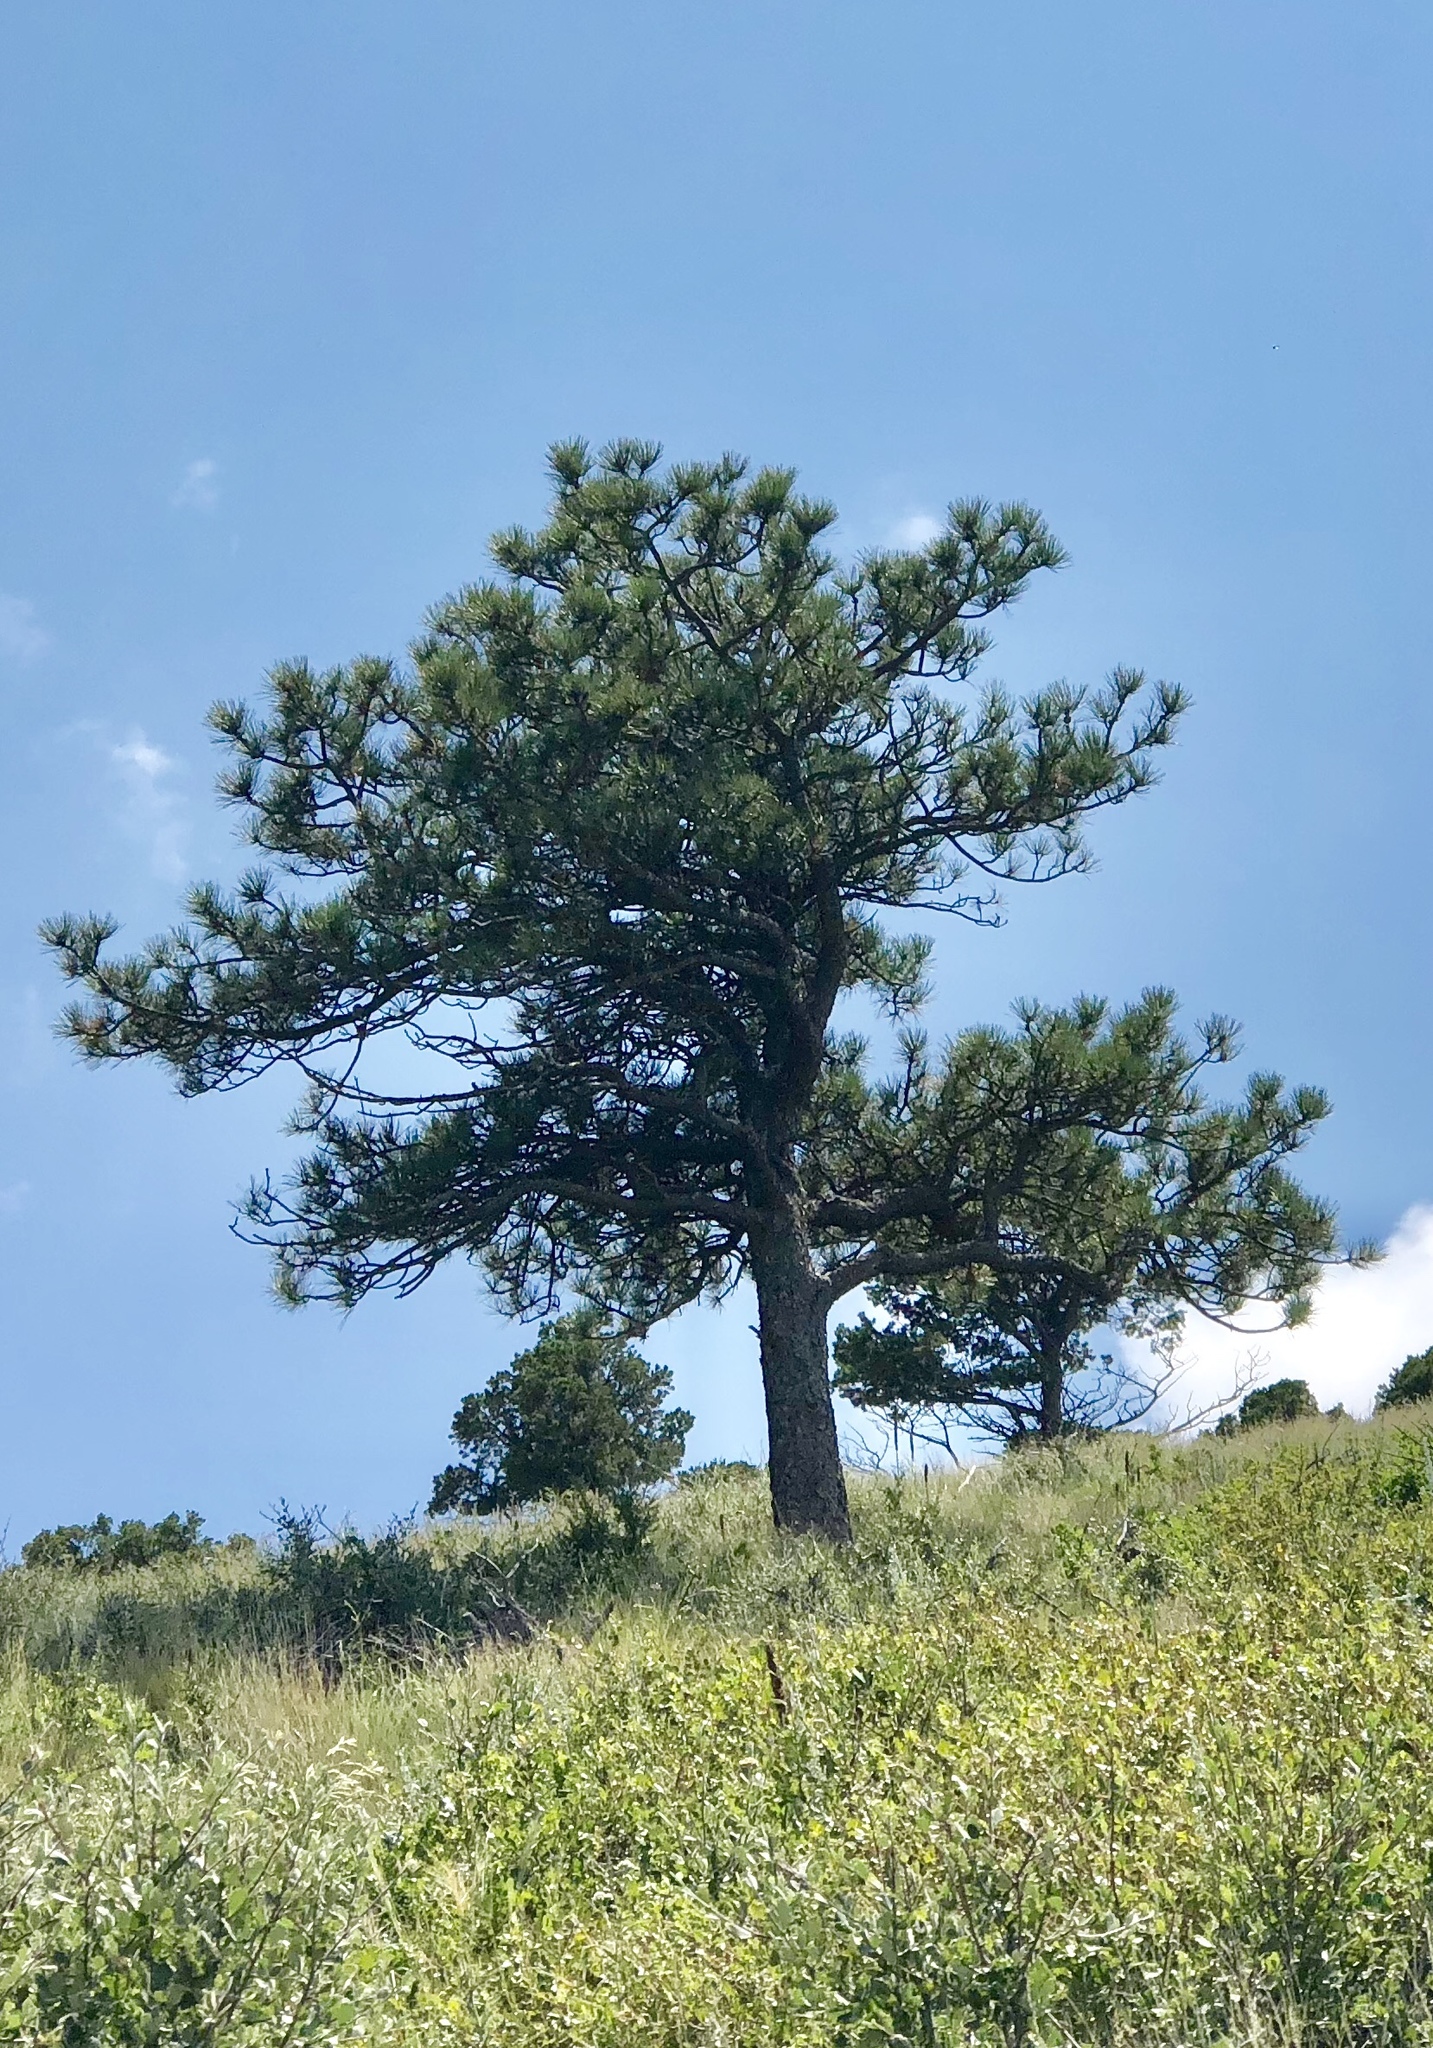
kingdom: Plantae
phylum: Tracheophyta
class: Pinopsida
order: Pinales
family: Pinaceae
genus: Pinus
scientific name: Pinus ponderosa
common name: Western yellow-pine
